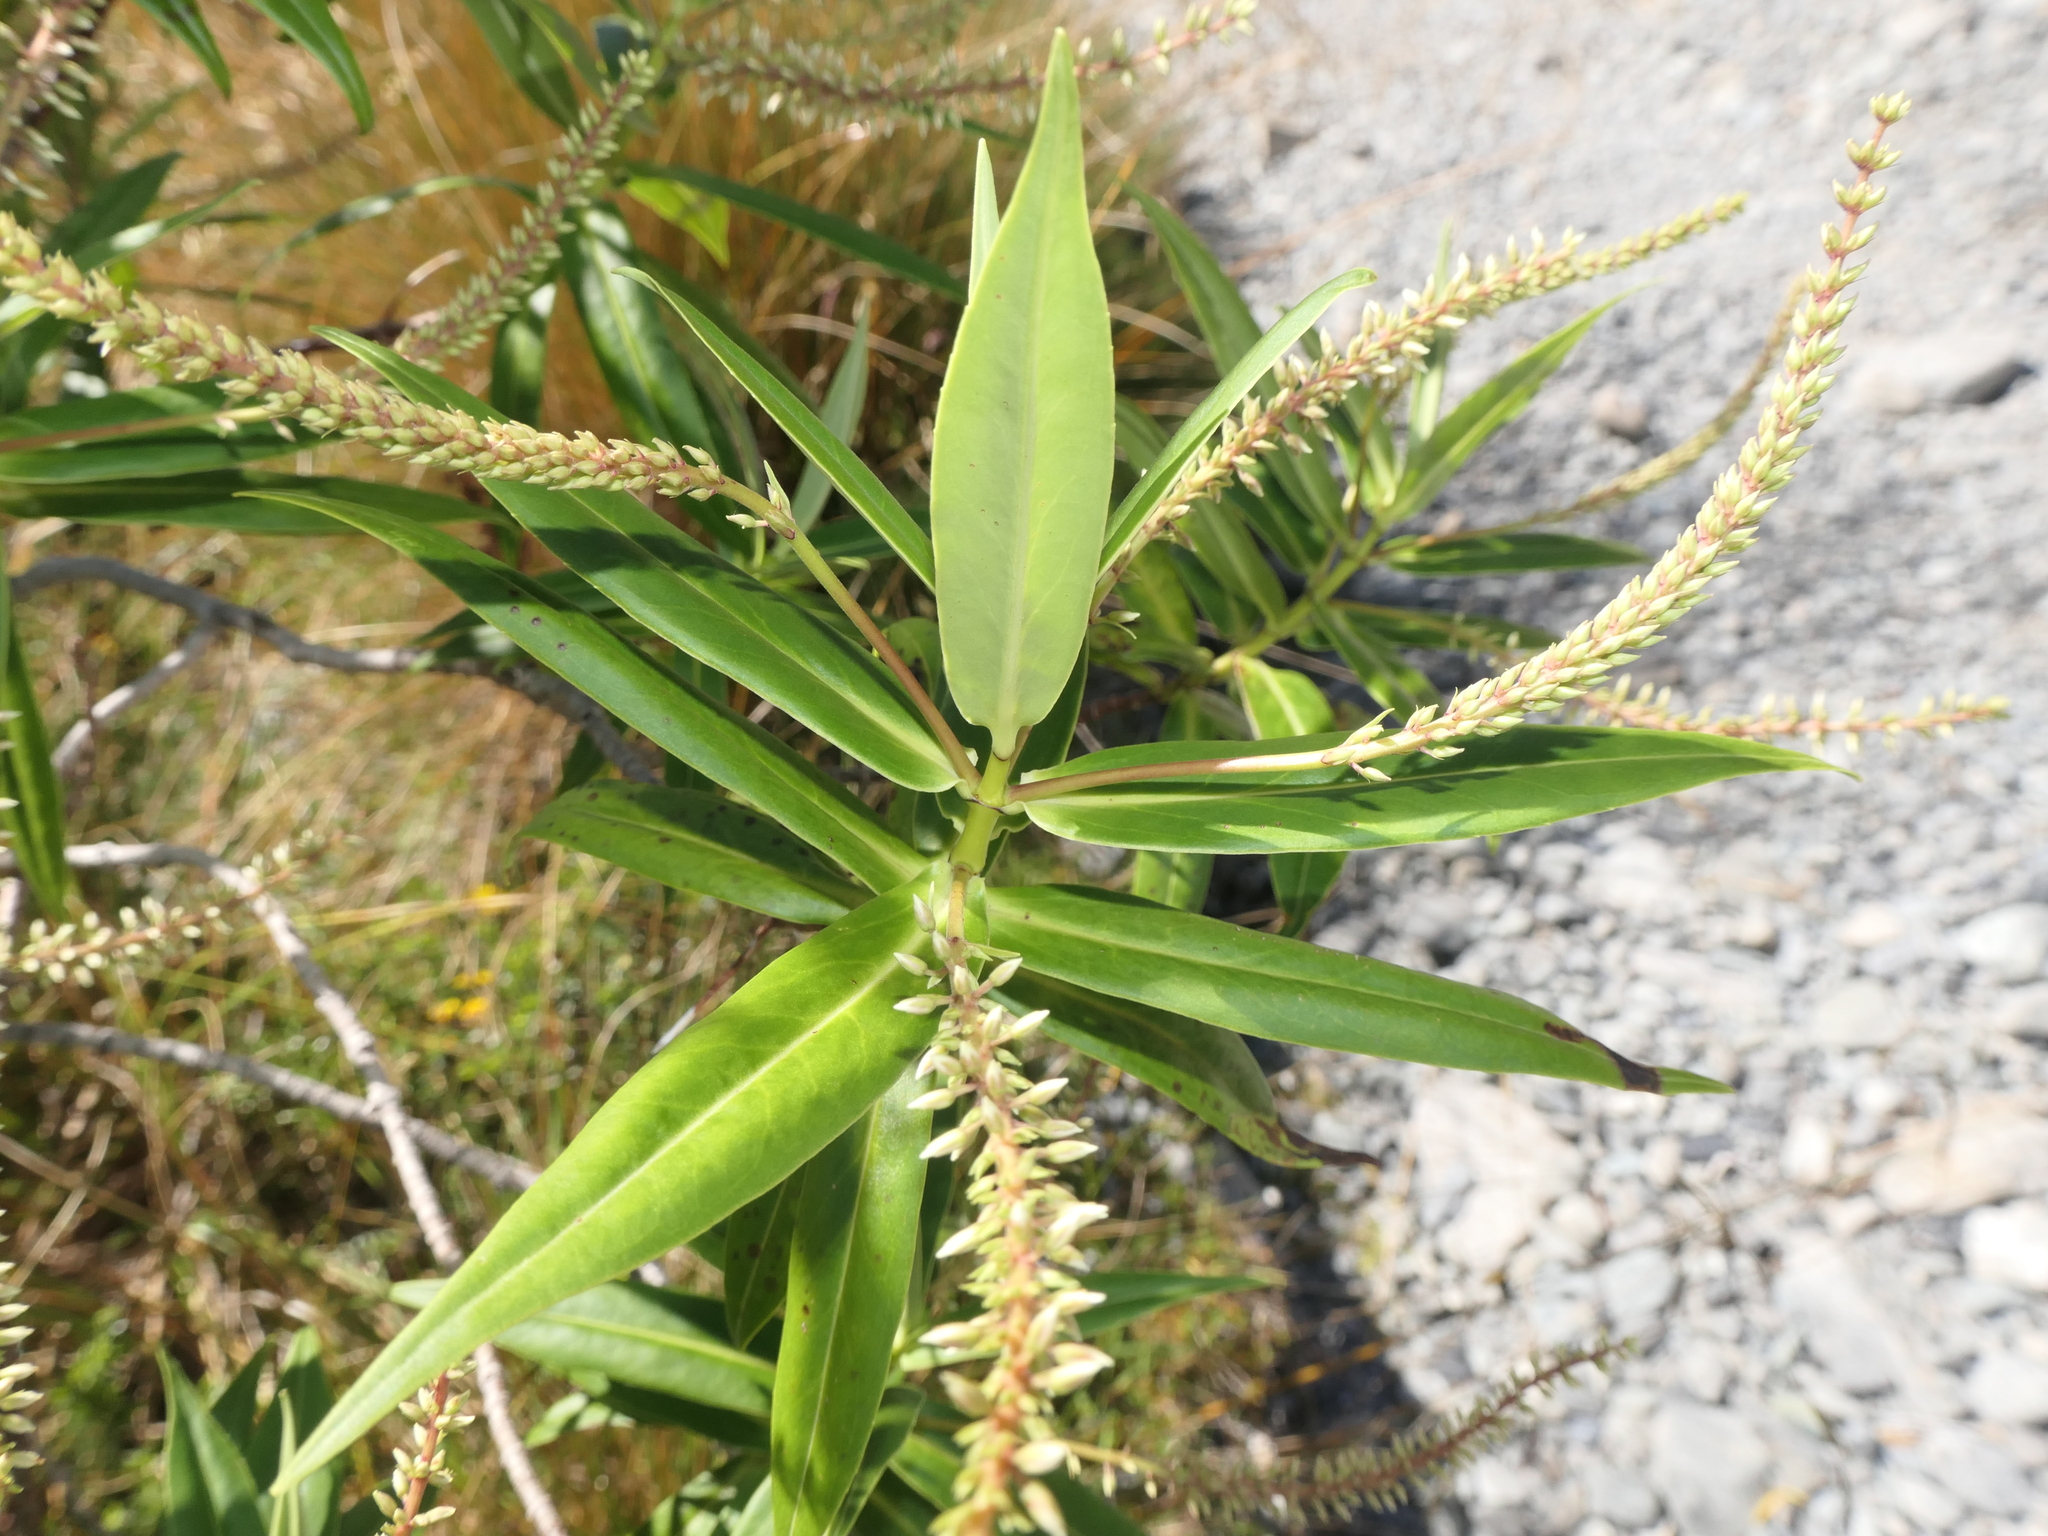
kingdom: Plantae
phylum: Tracheophyta
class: Magnoliopsida
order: Lamiales
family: Plantaginaceae
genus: Veronica
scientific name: Veronica salicifolia
